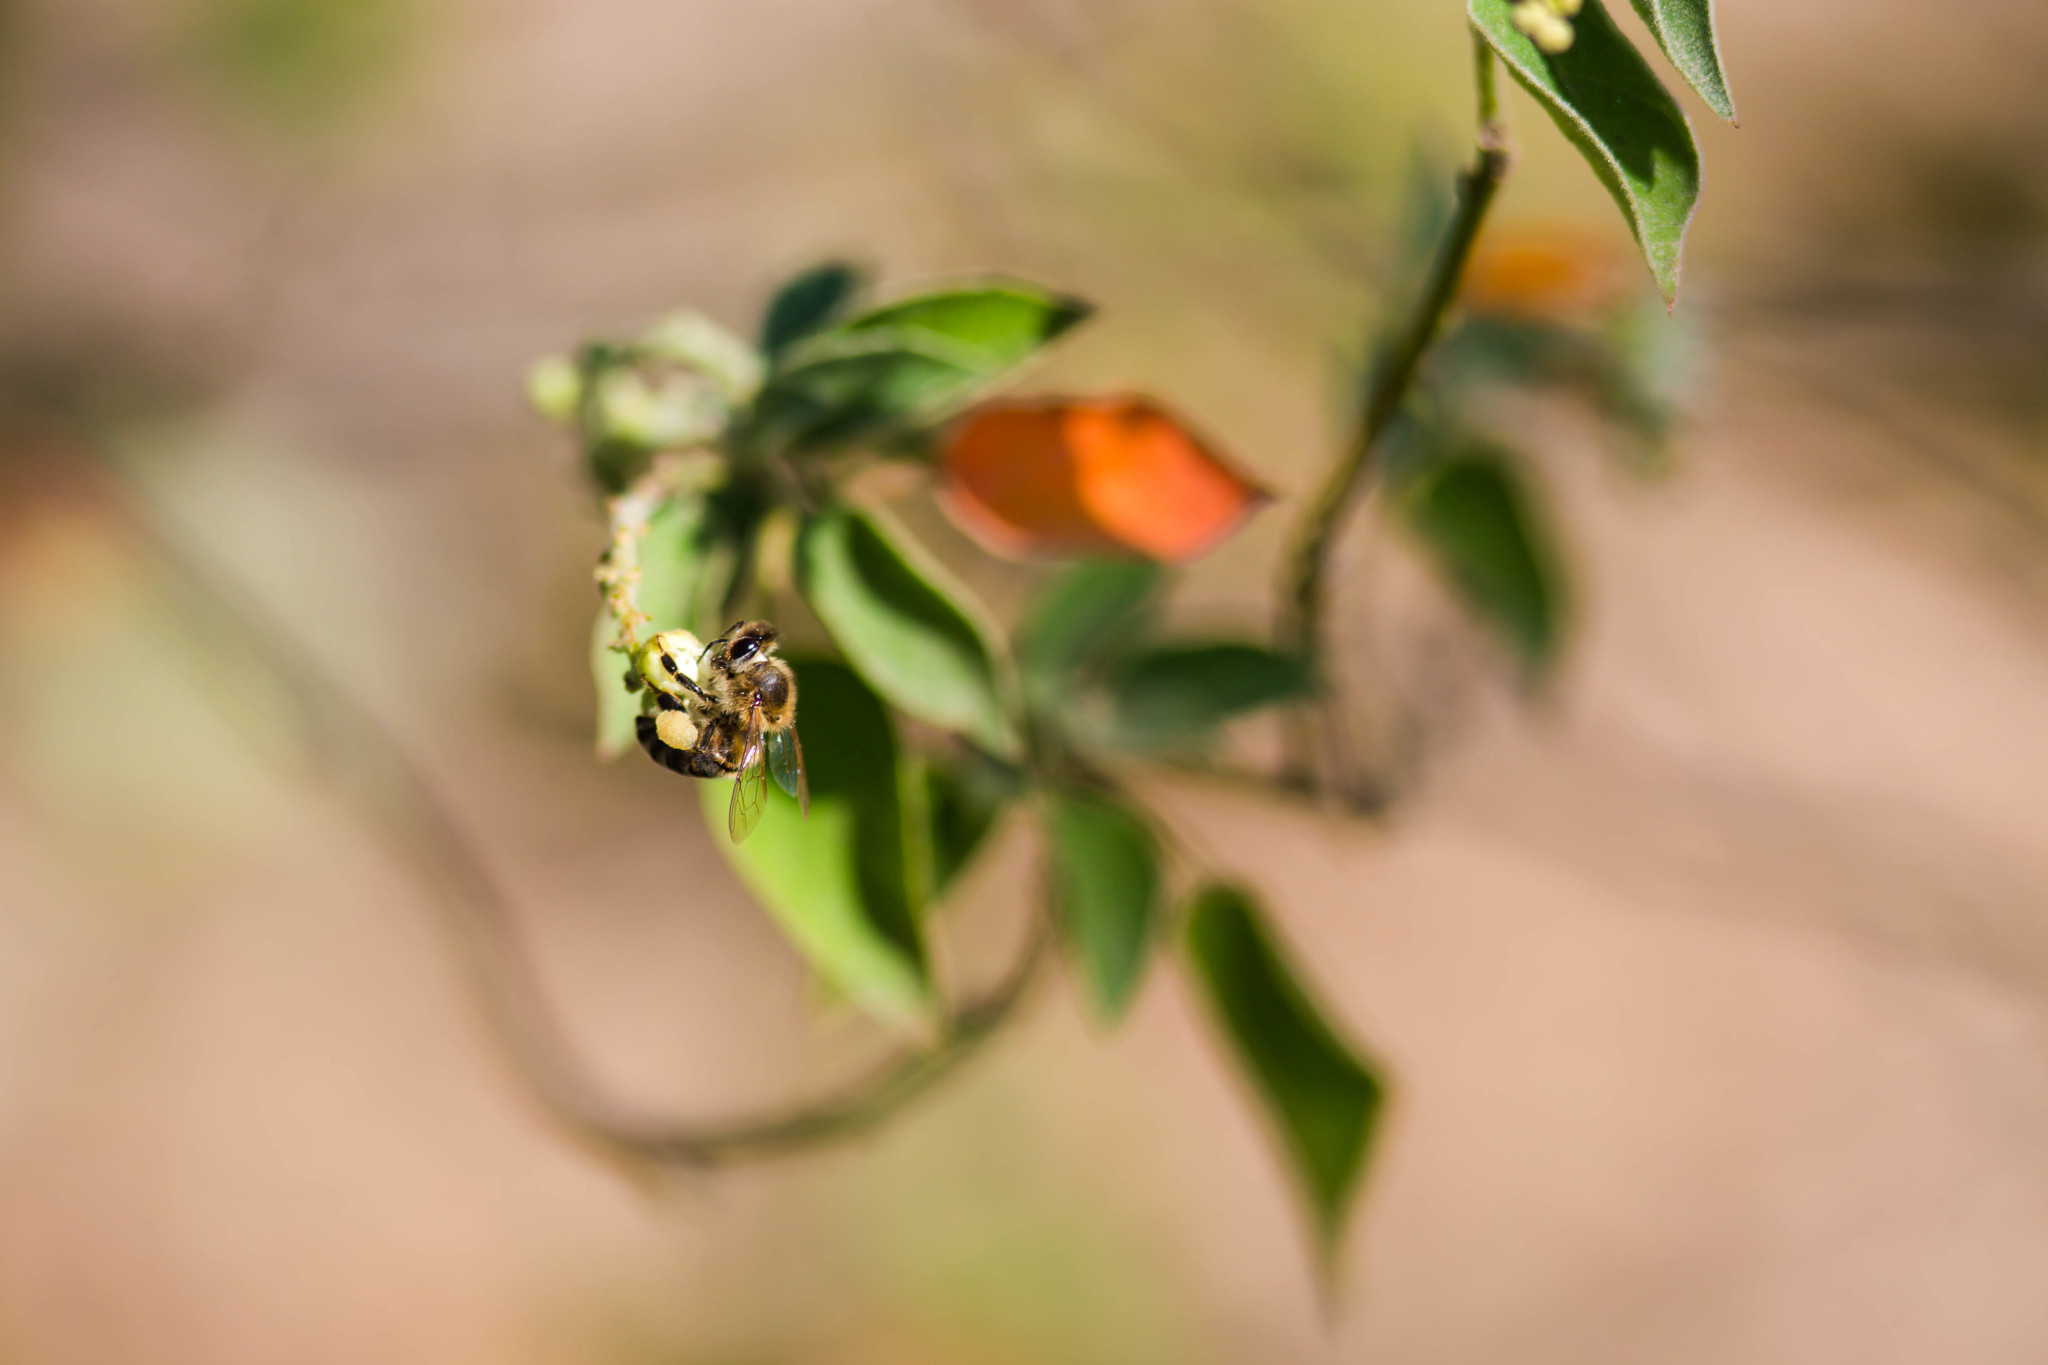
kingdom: Animalia
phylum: Arthropoda
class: Insecta
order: Hymenoptera
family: Apidae
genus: Apis
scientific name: Apis mellifera
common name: Honey bee
